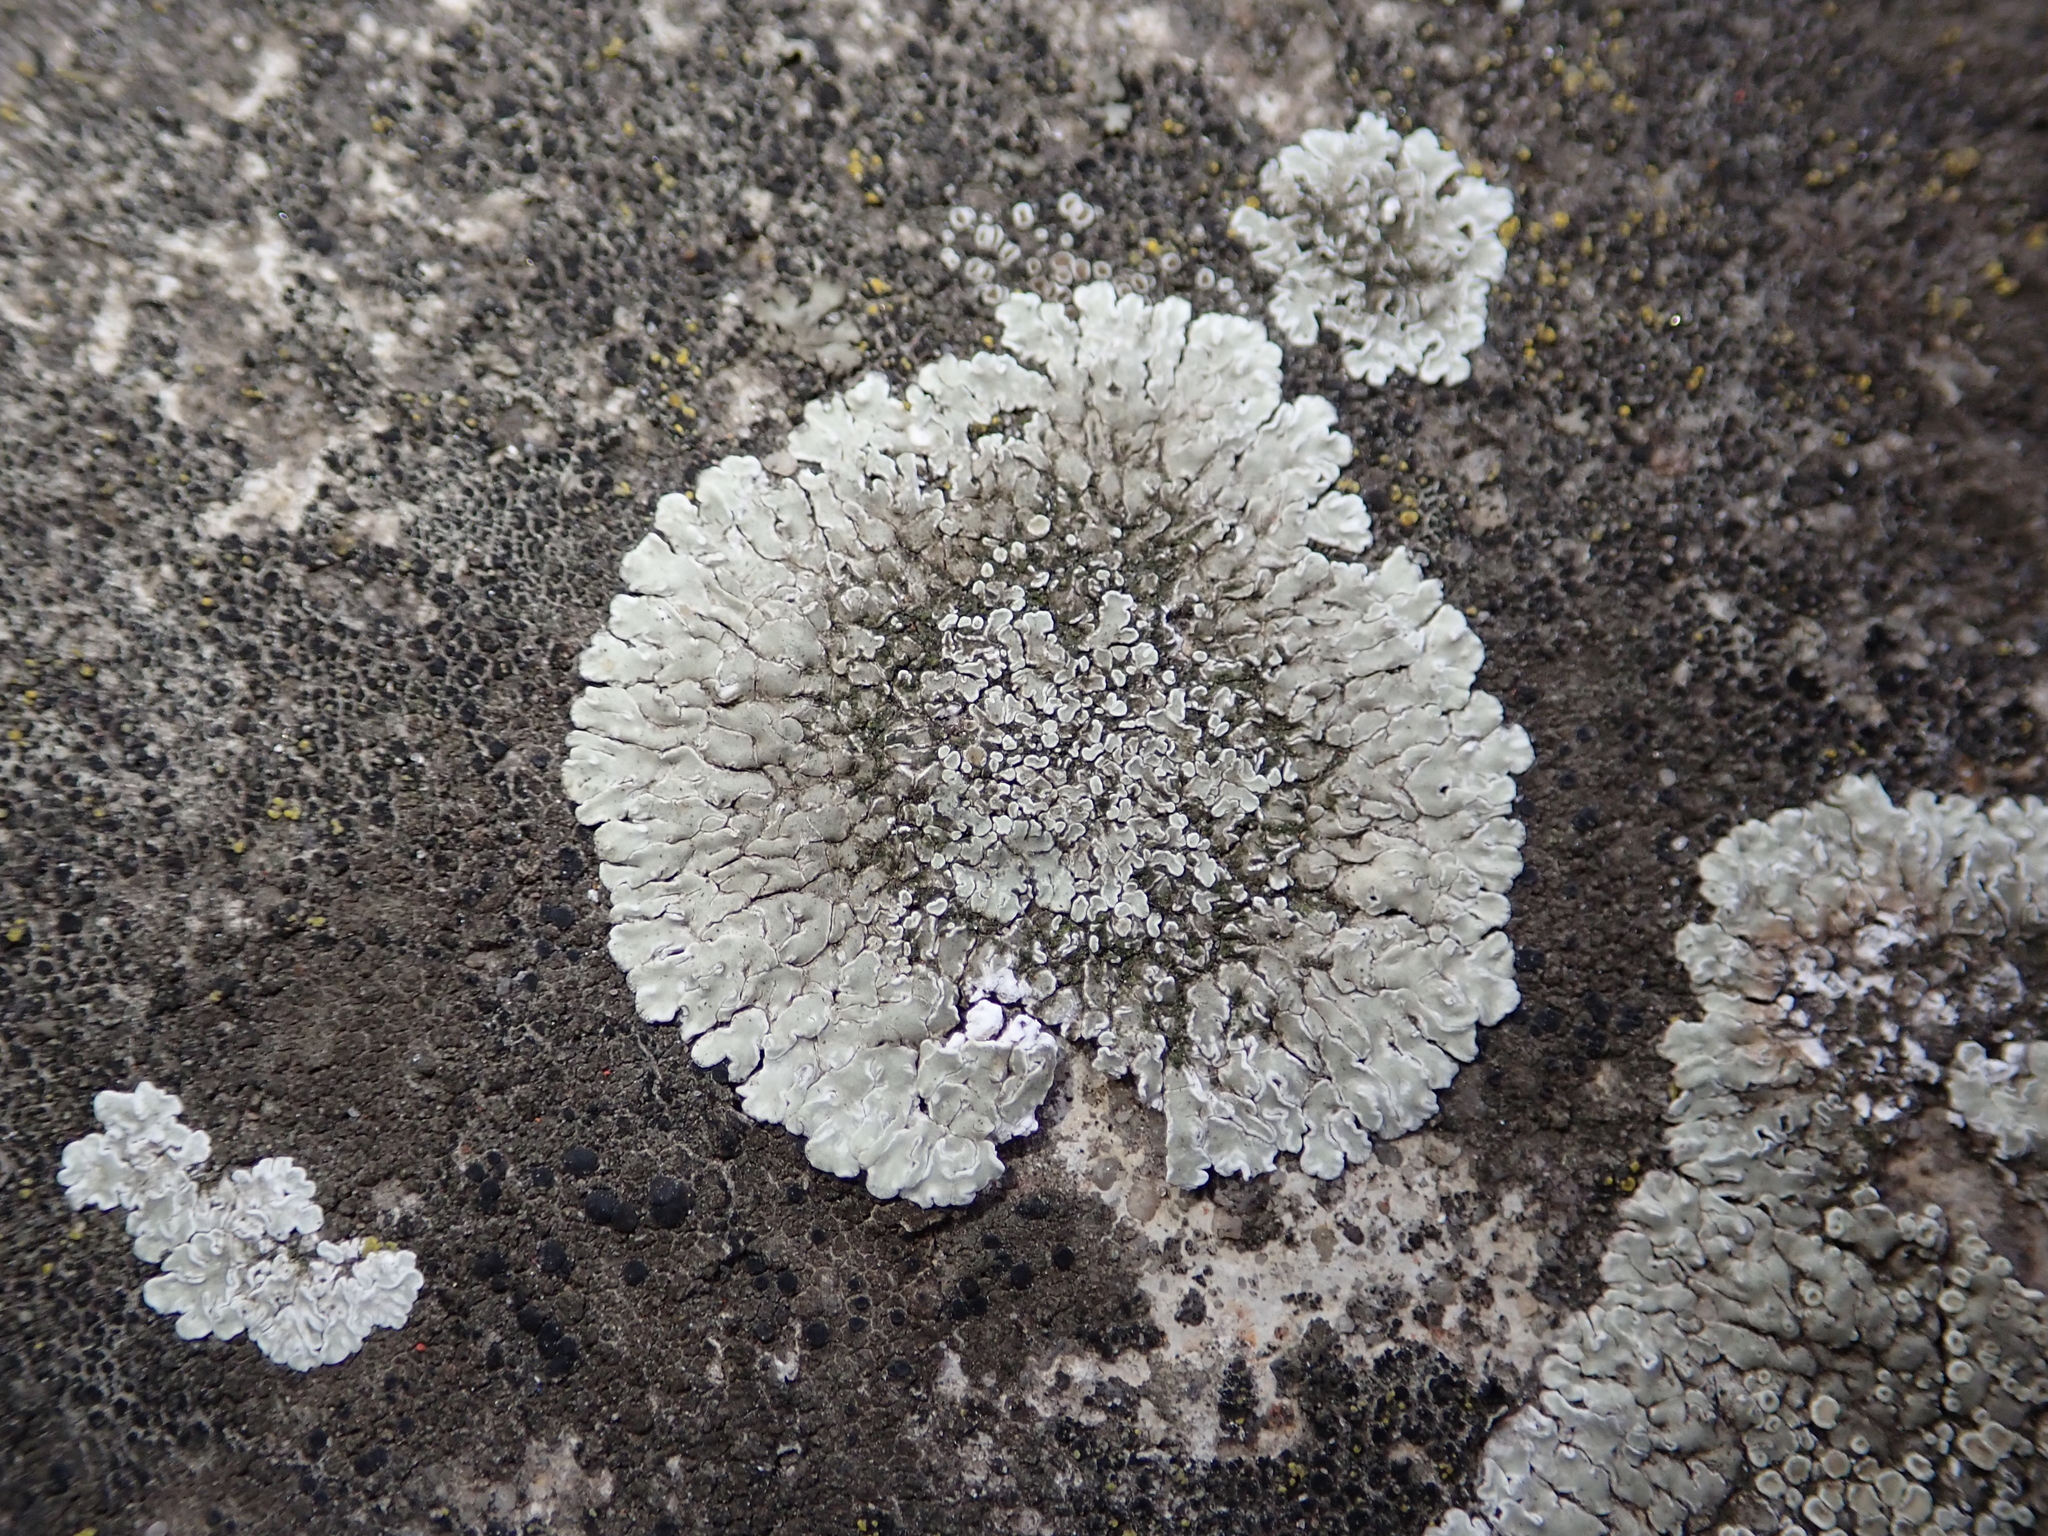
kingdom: Fungi
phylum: Ascomycota
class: Lecanoromycetes
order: Lecanorales
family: Lecanoraceae
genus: Protoparmeliopsis
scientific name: Protoparmeliopsis muralis
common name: Stonewall rim lichen
